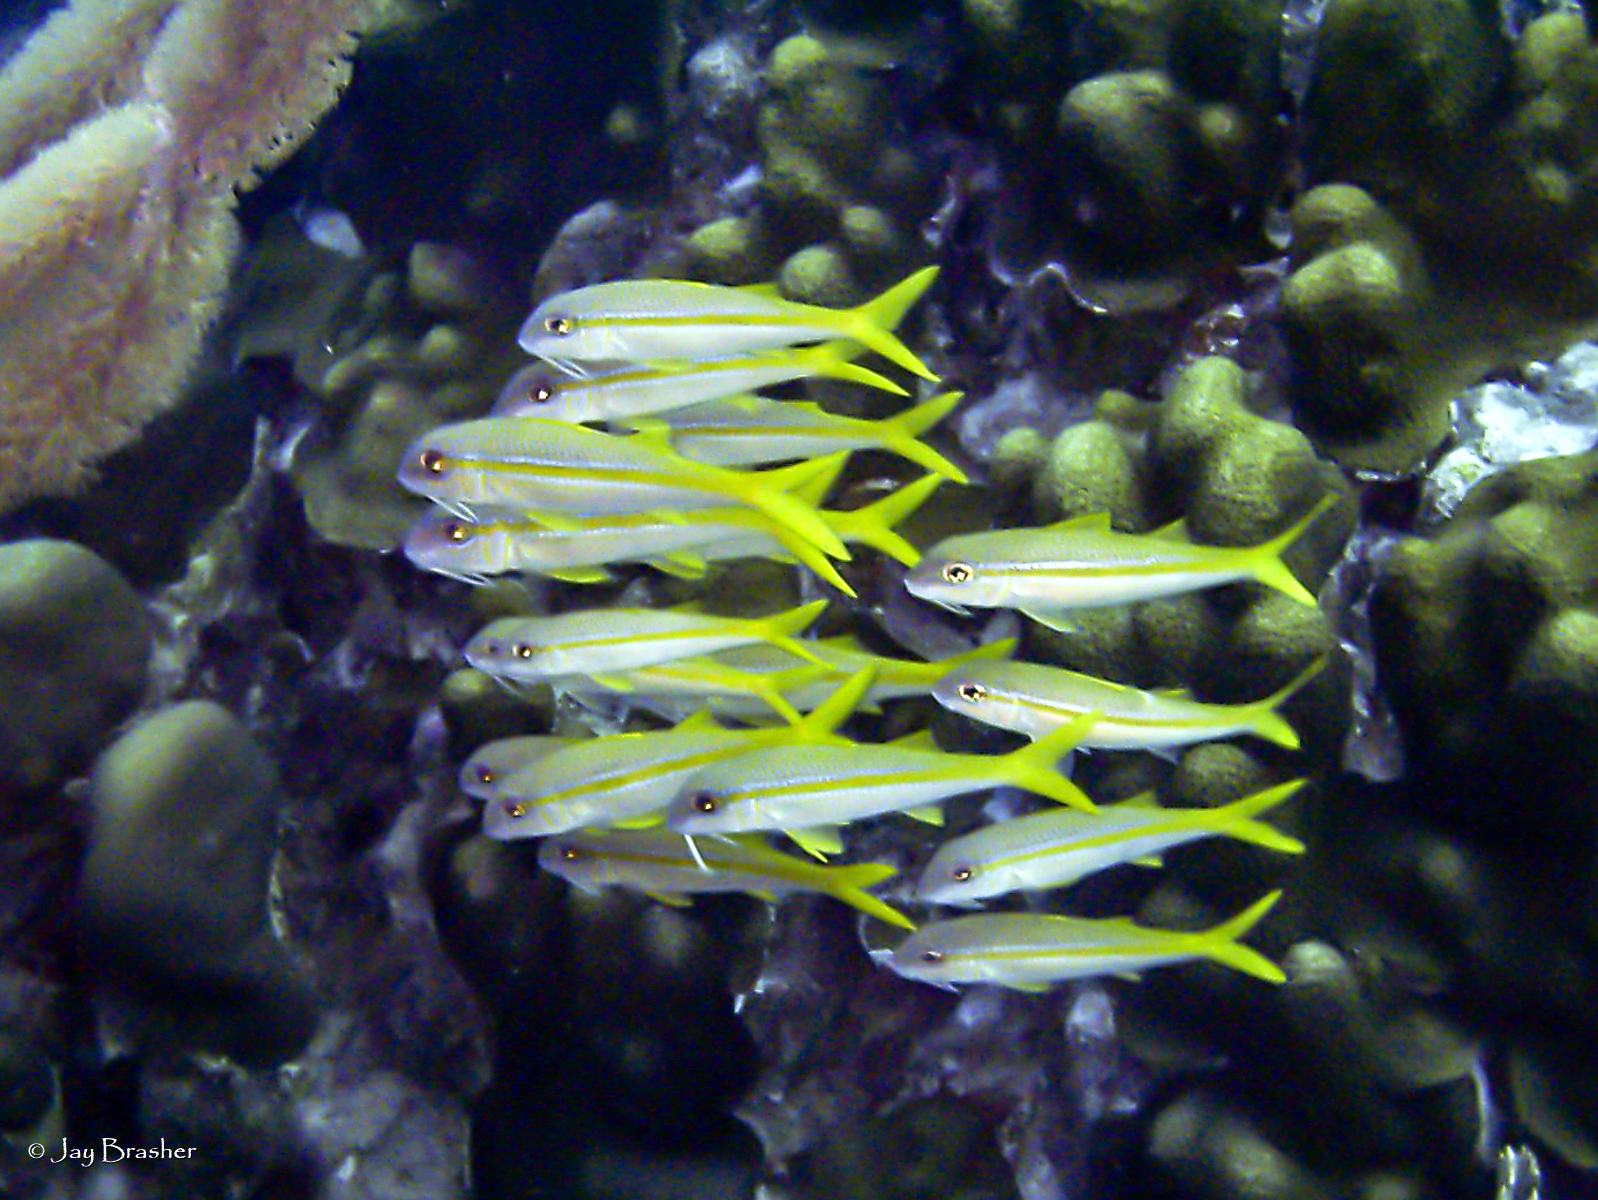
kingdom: Animalia
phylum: Chordata
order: Perciformes
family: Mullidae
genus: Mulloidichthys
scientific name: Mulloidichthys martinicus
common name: Yellow goatfish
